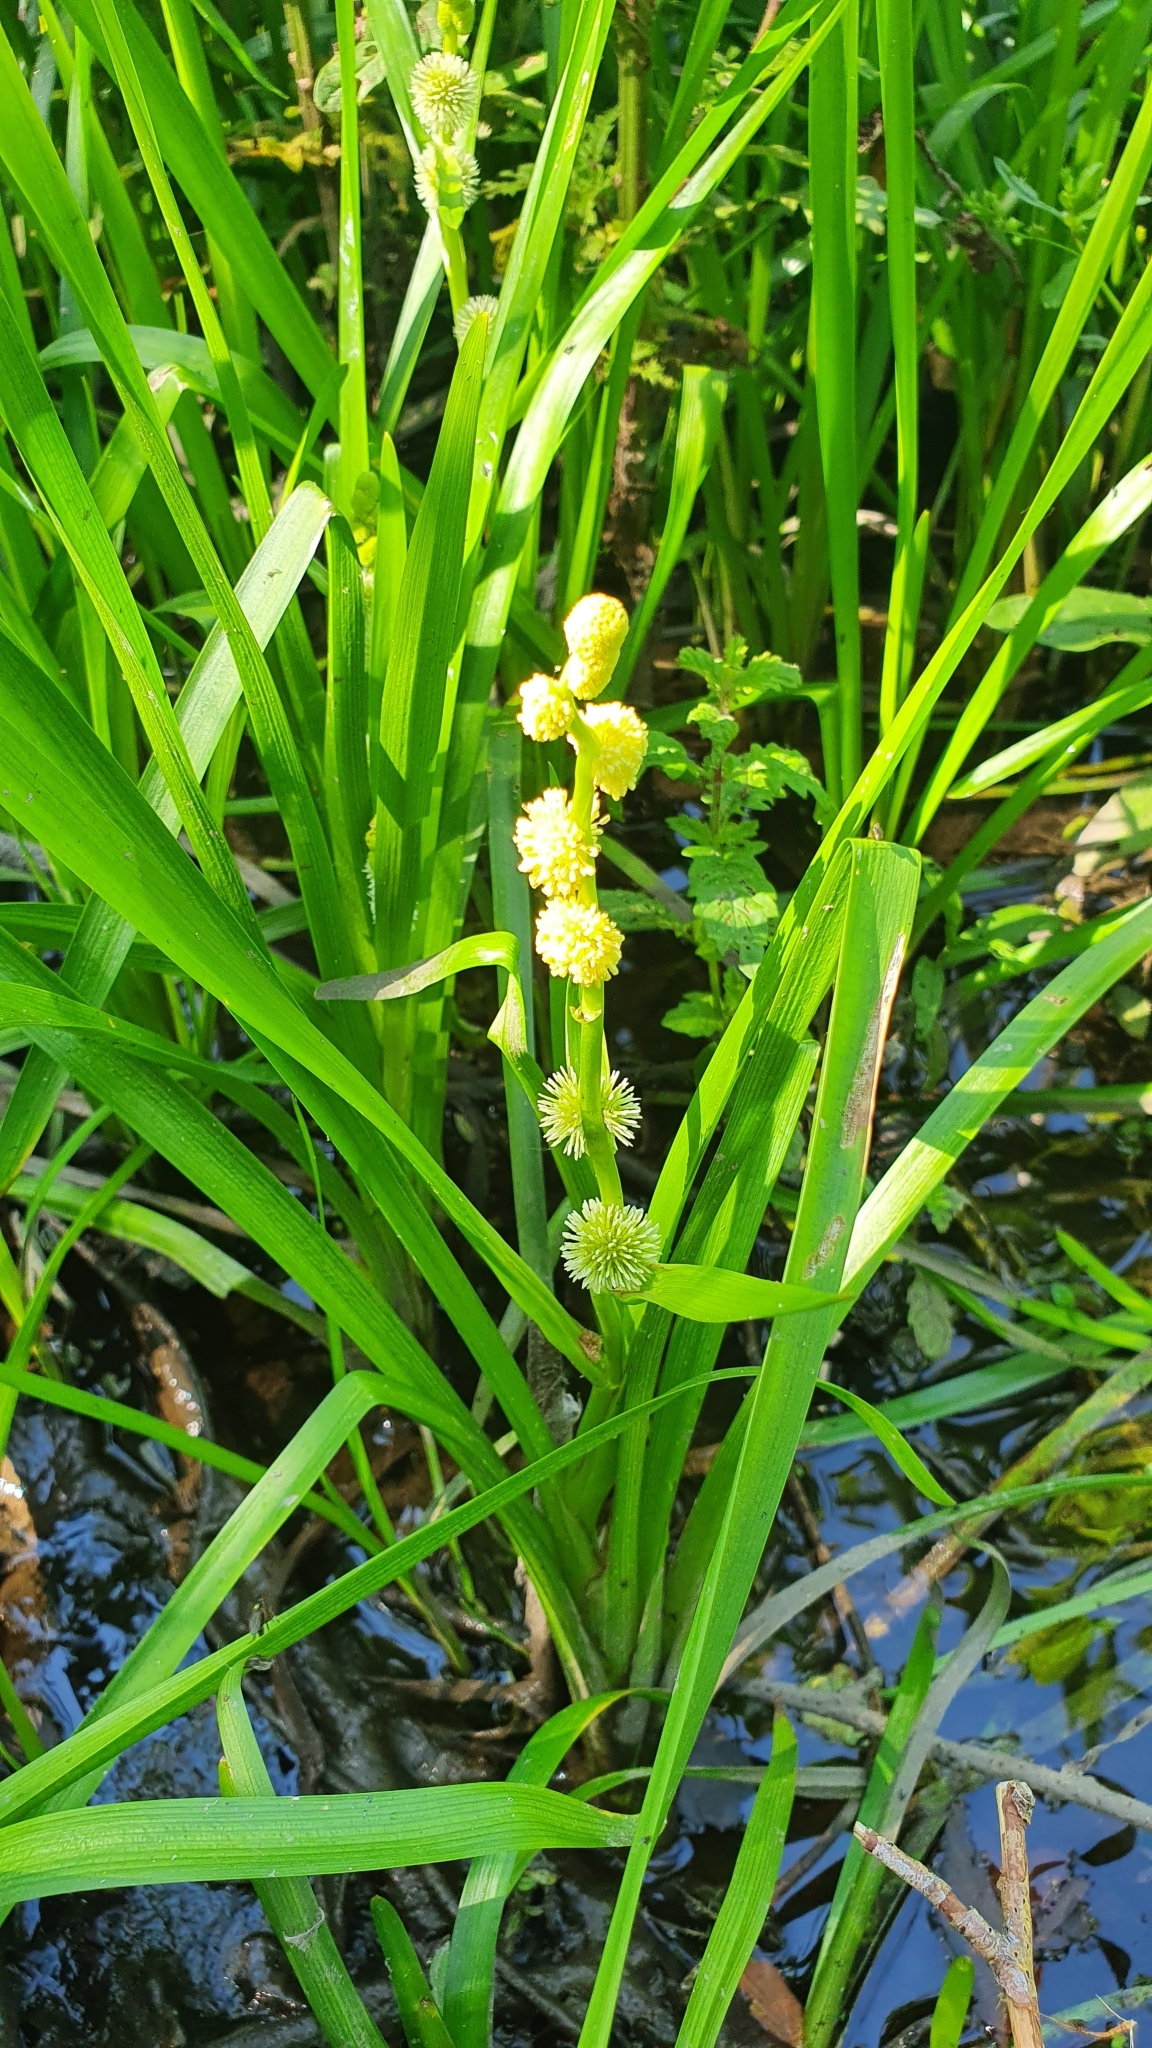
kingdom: Plantae
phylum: Tracheophyta
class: Liliopsida
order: Poales
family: Typhaceae
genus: Sparganium
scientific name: Sparganium emersum
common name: Unbranched bur-reed
